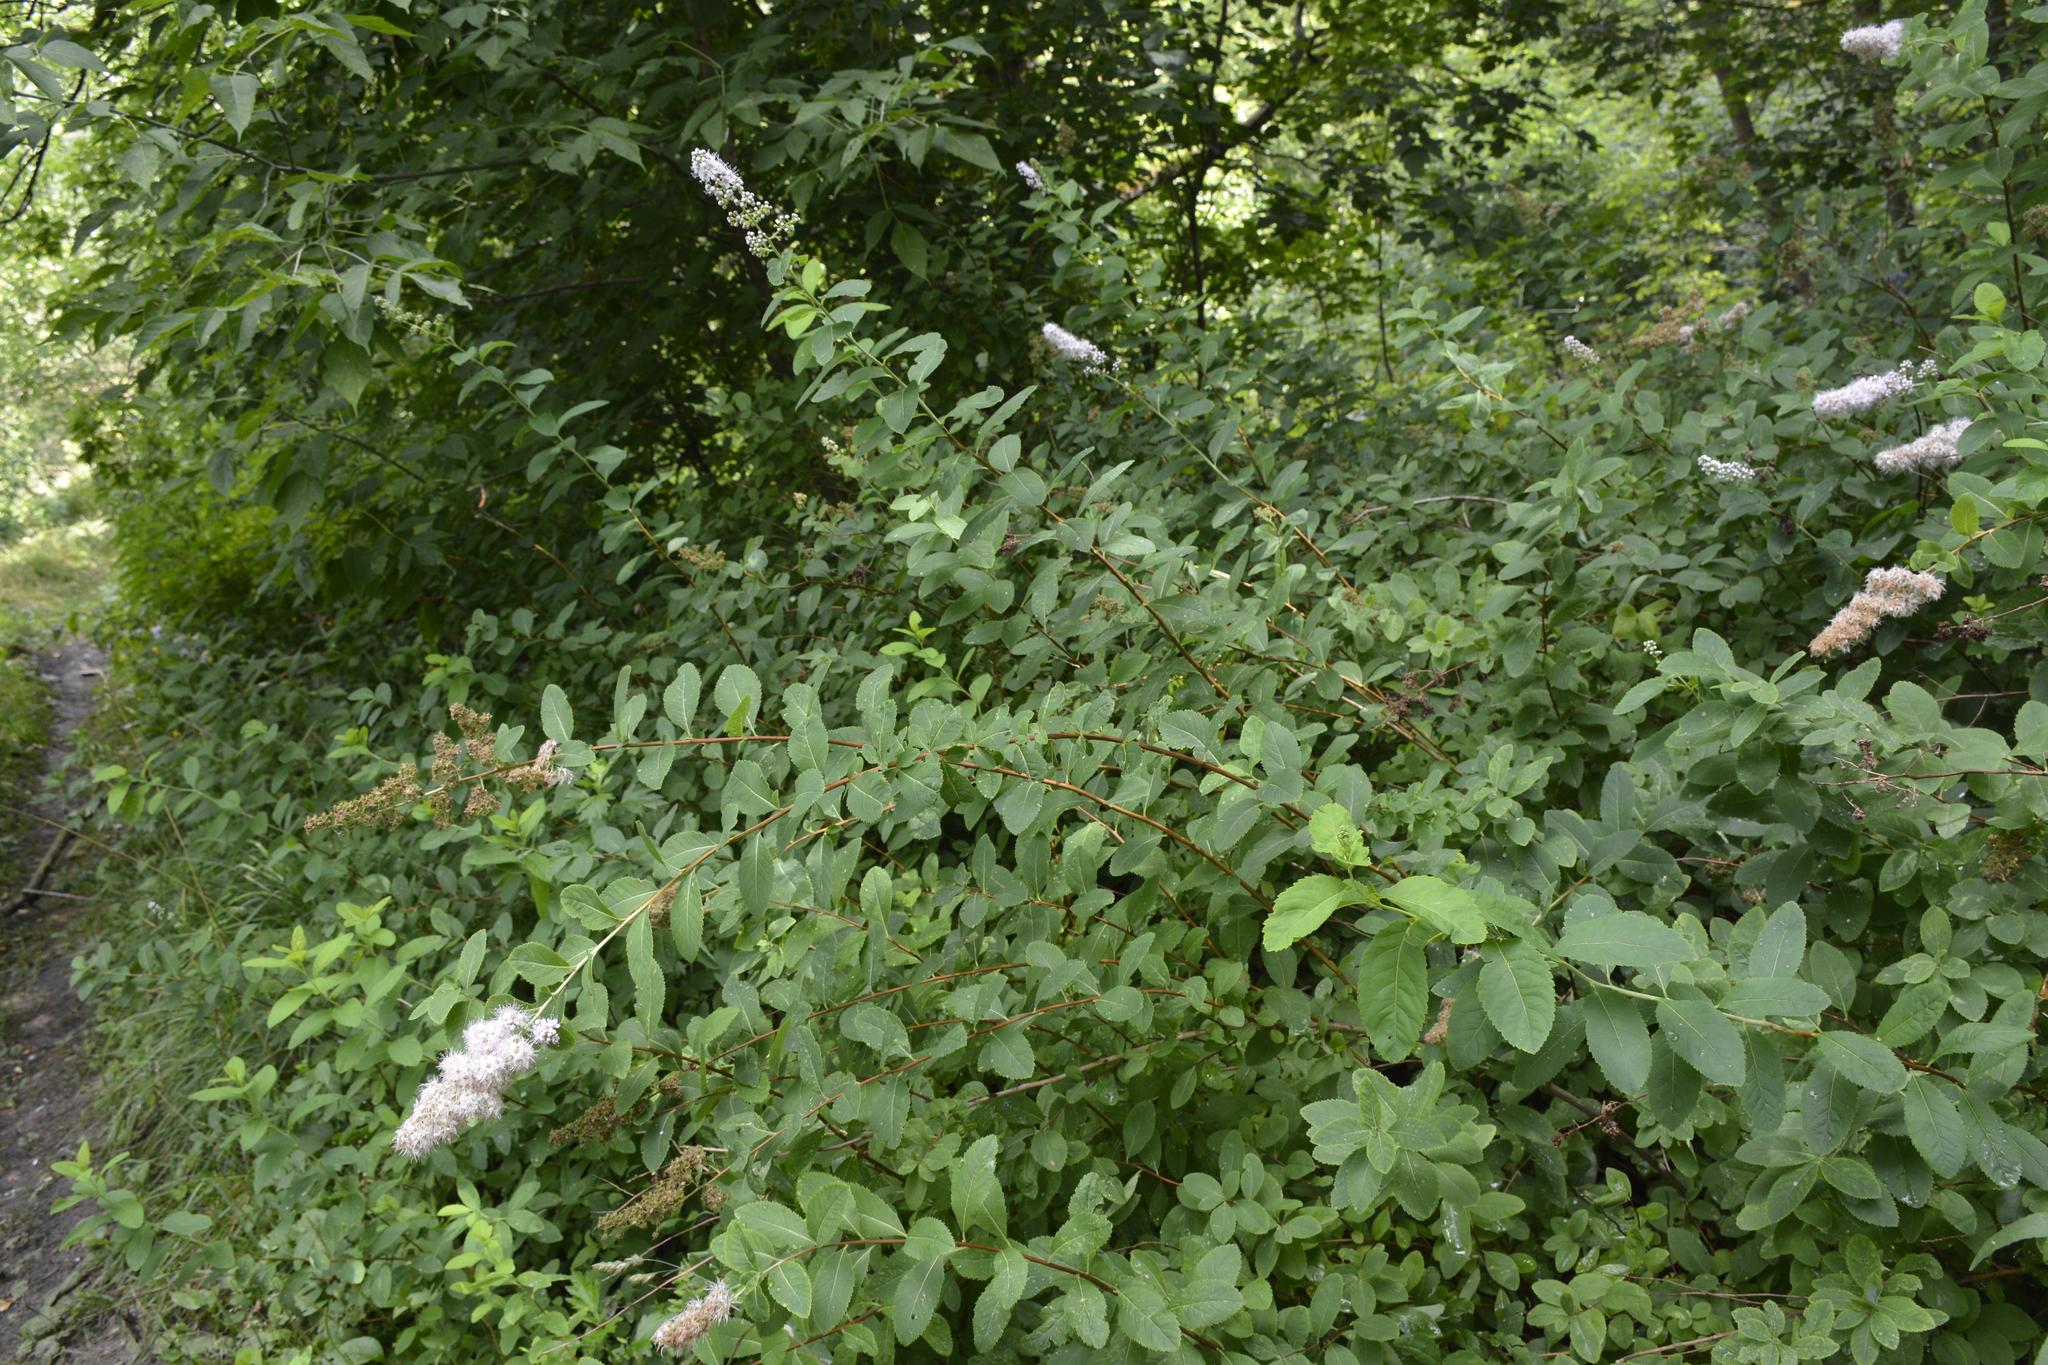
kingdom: Plantae
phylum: Tracheophyta
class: Magnoliopsida
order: Rosales
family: Rosaceae
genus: Spiraea
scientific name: Spiraea rosalba
